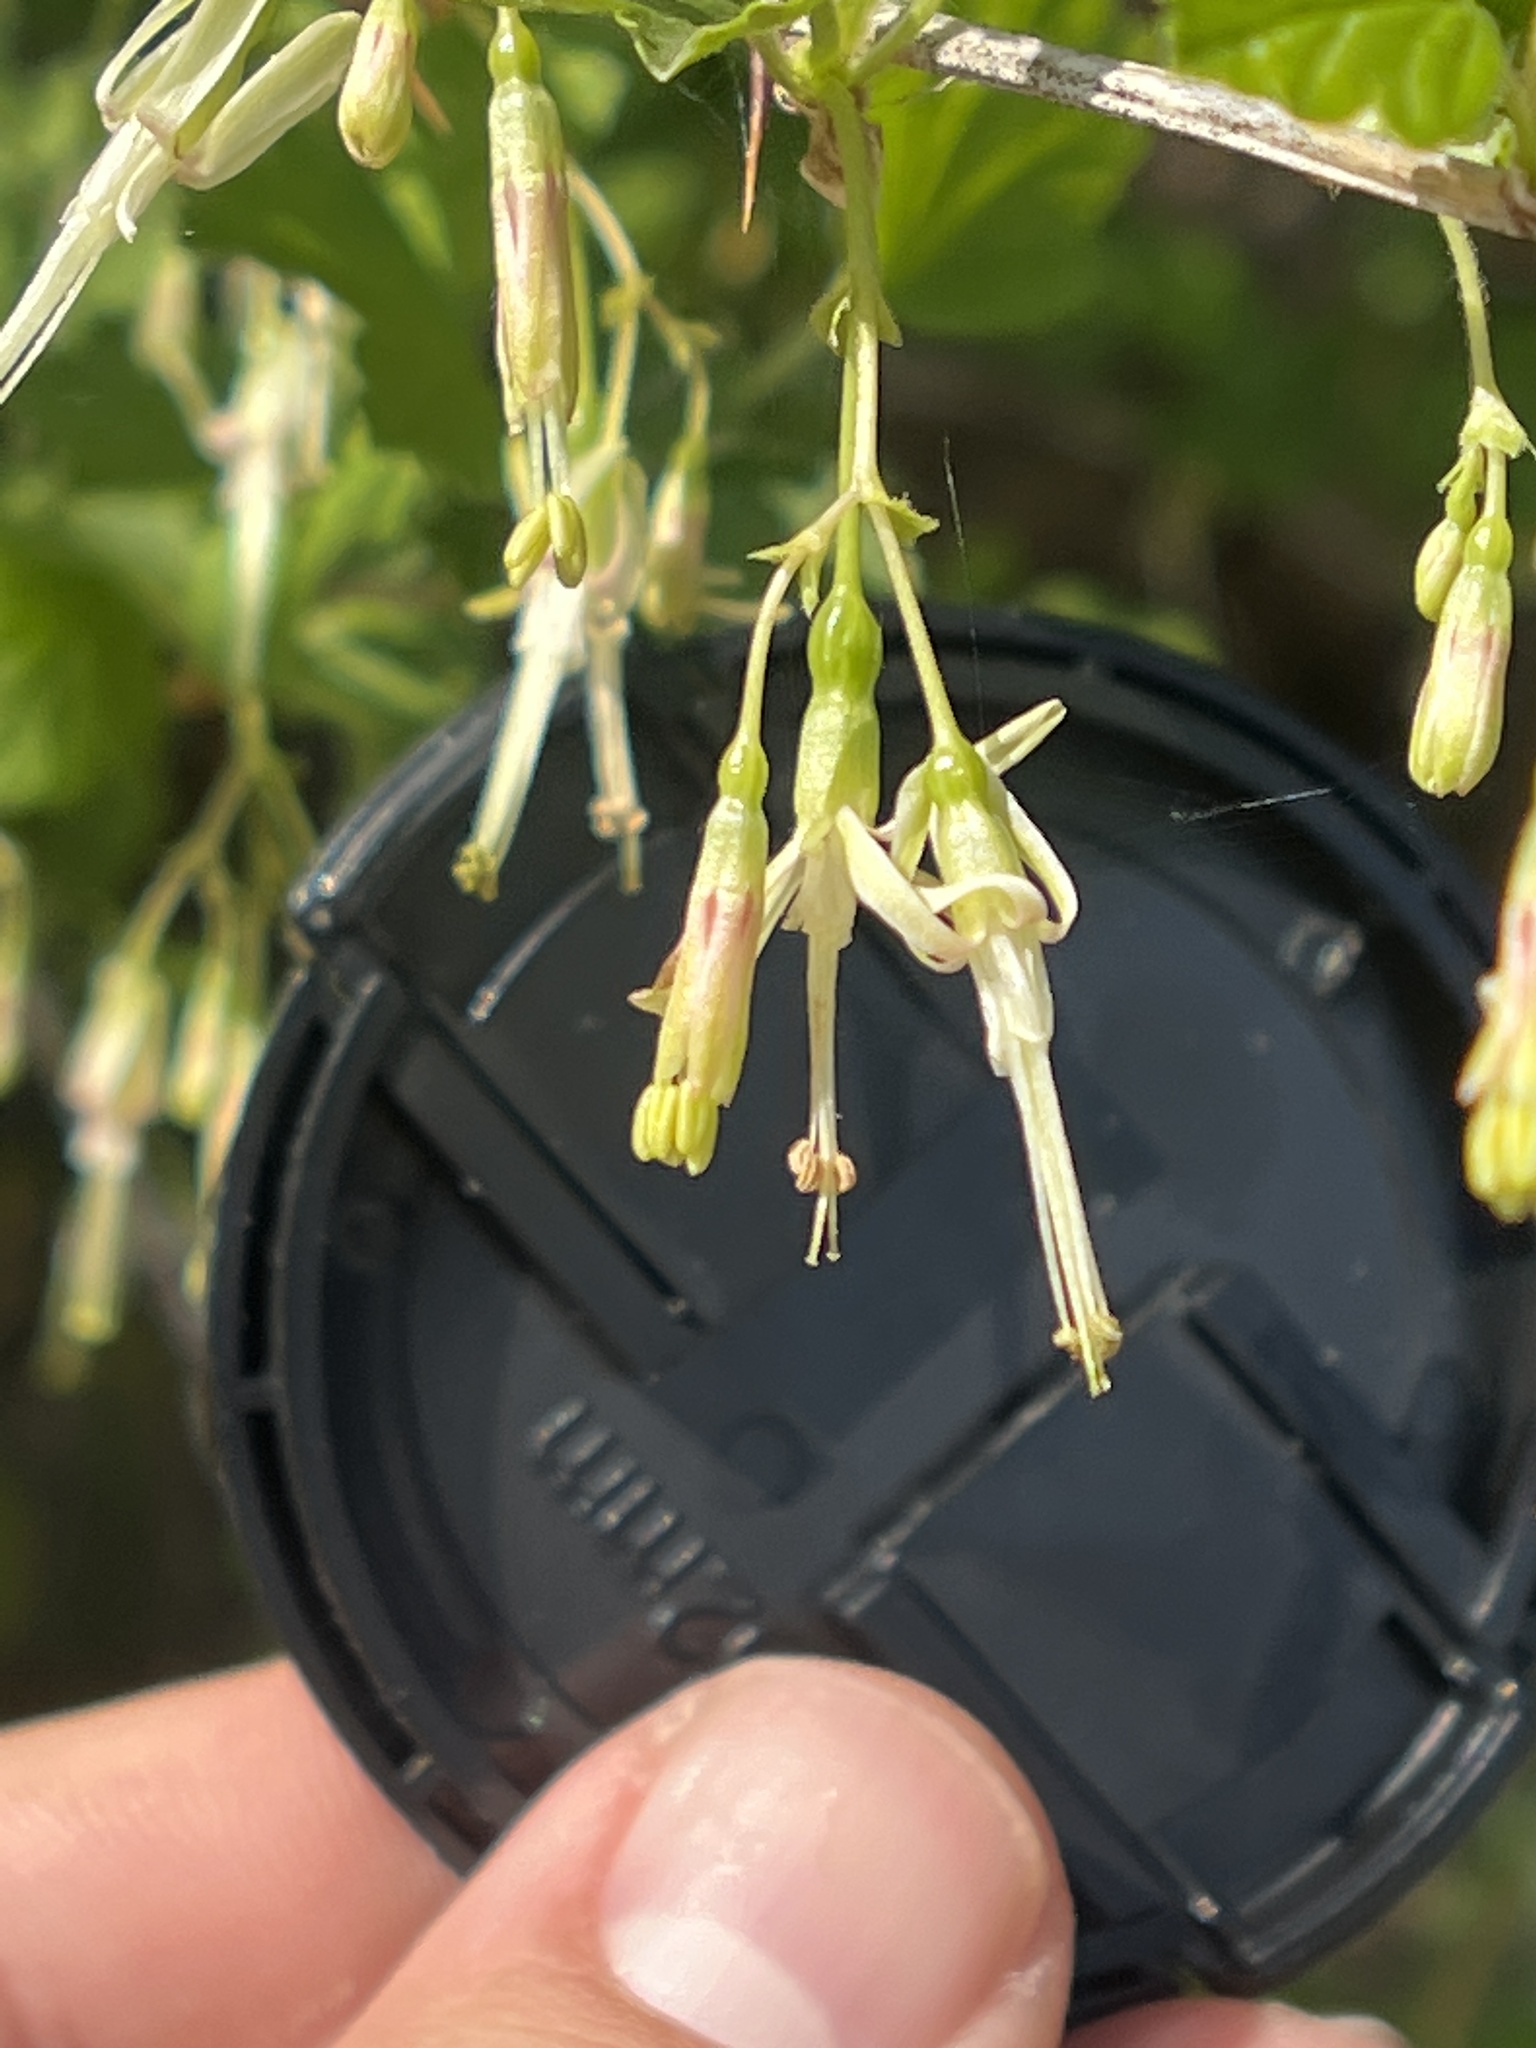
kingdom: Plantae
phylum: Tracheophyta
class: Magnoliopsida
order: Saxifragales
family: Grossulariaceae
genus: Ribes
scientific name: Ribes missouriense
